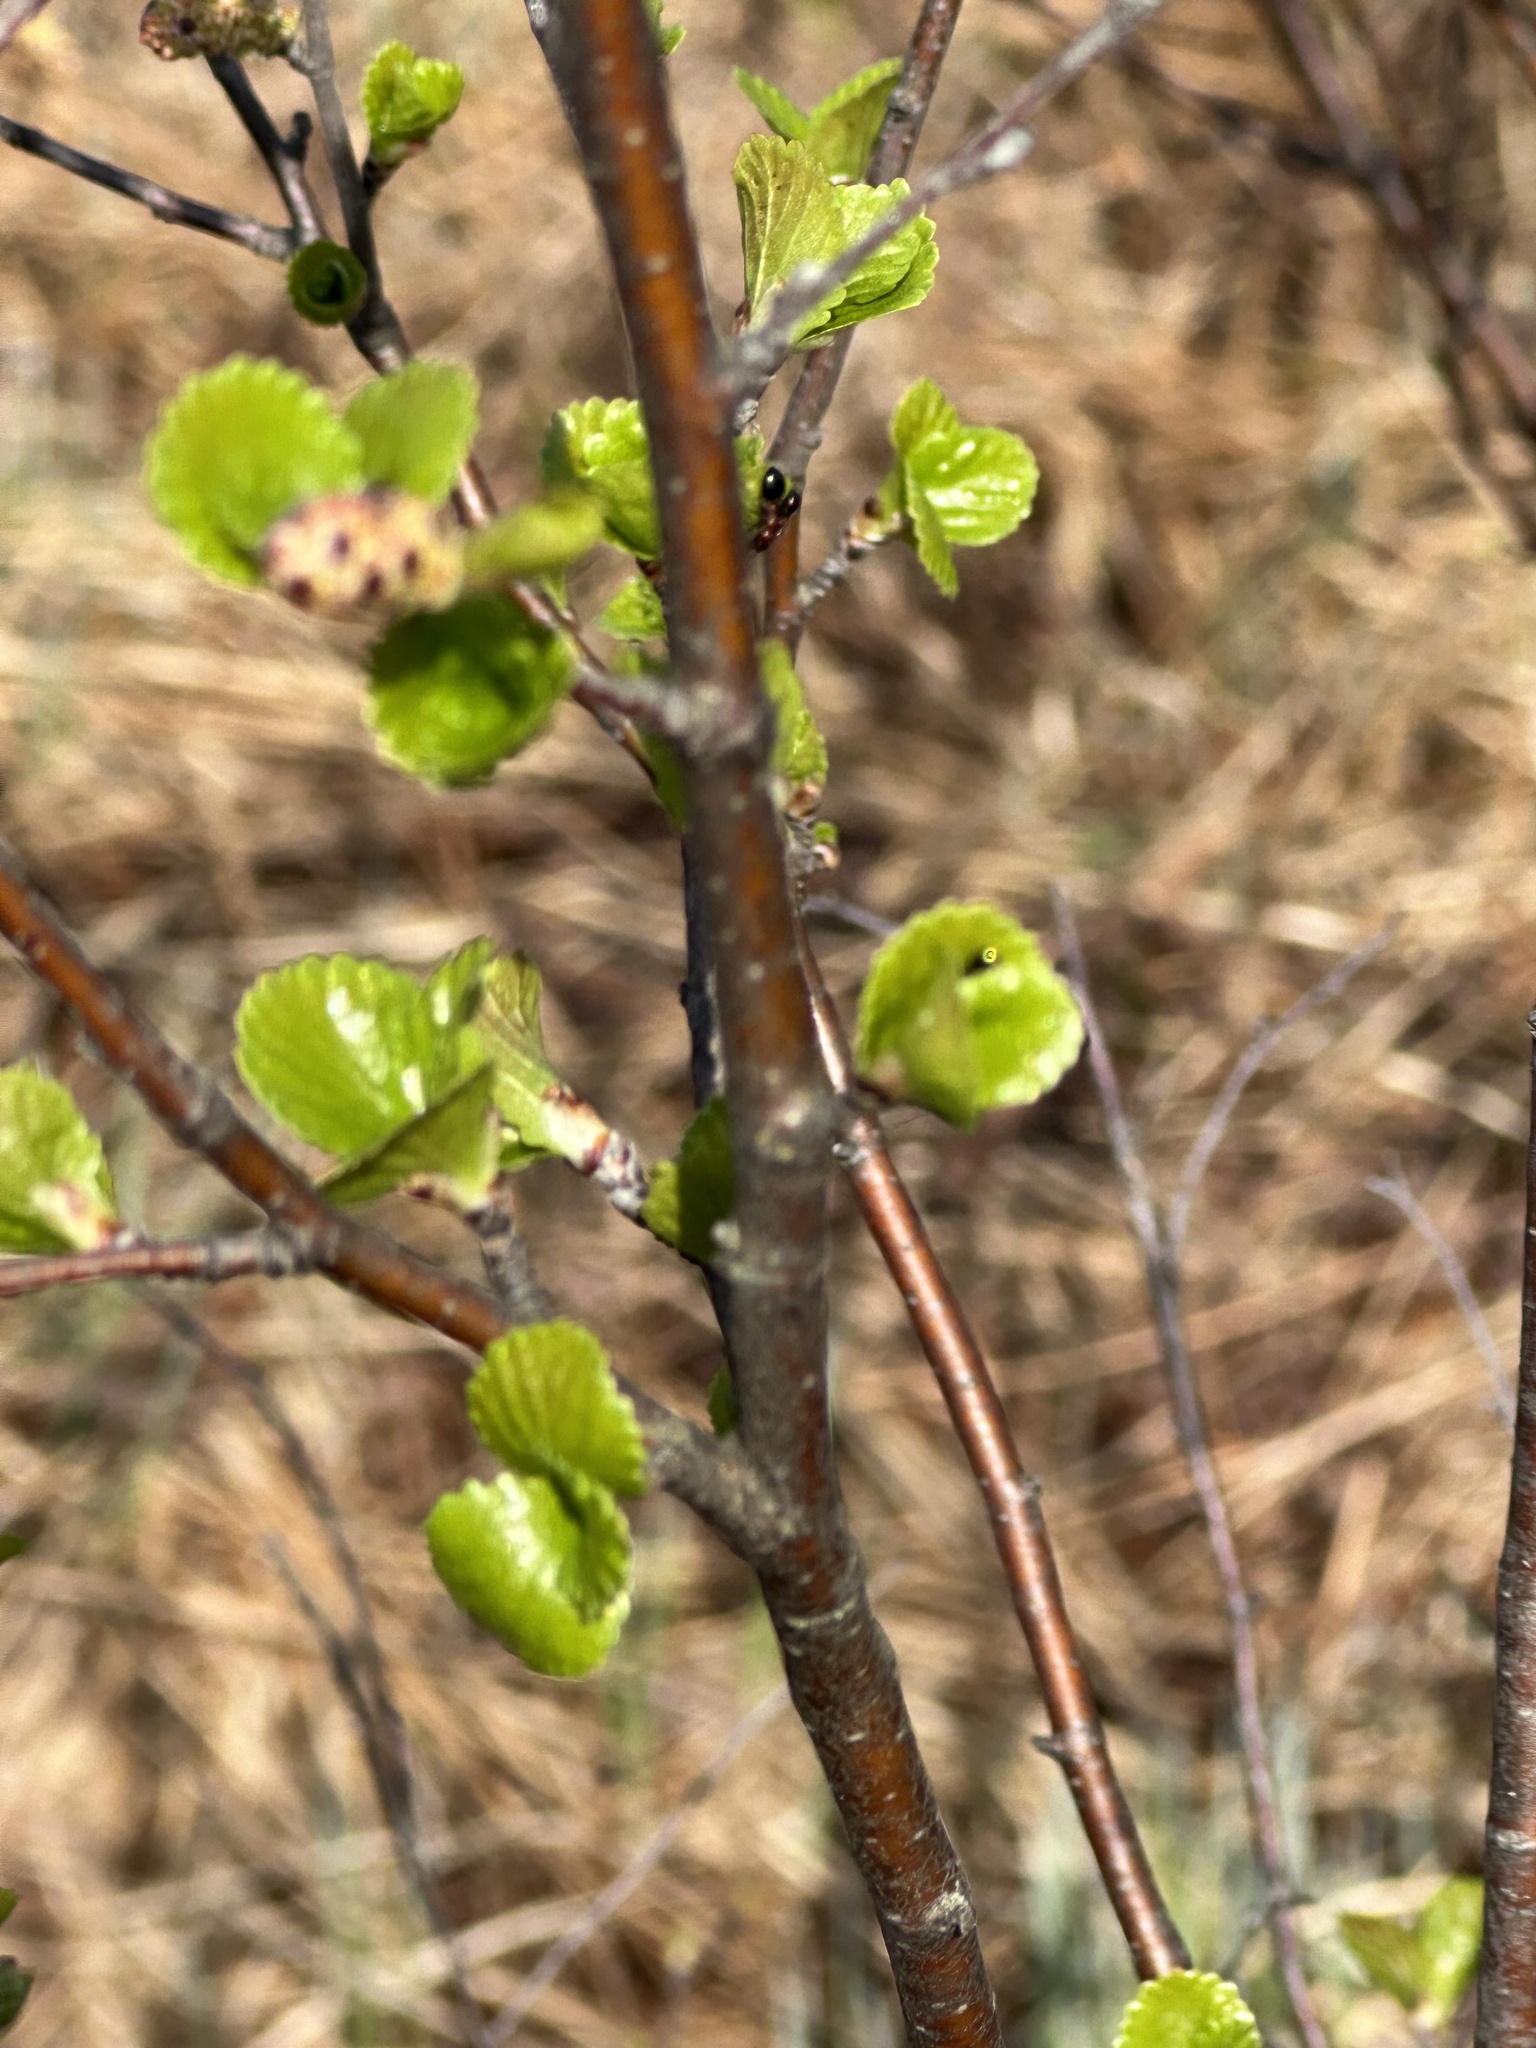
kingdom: Plantae
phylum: Tracheophyta
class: Magnoliopsida
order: Fagales
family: Betulaceae
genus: Betula
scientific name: Betula pumila
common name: Bog birch
